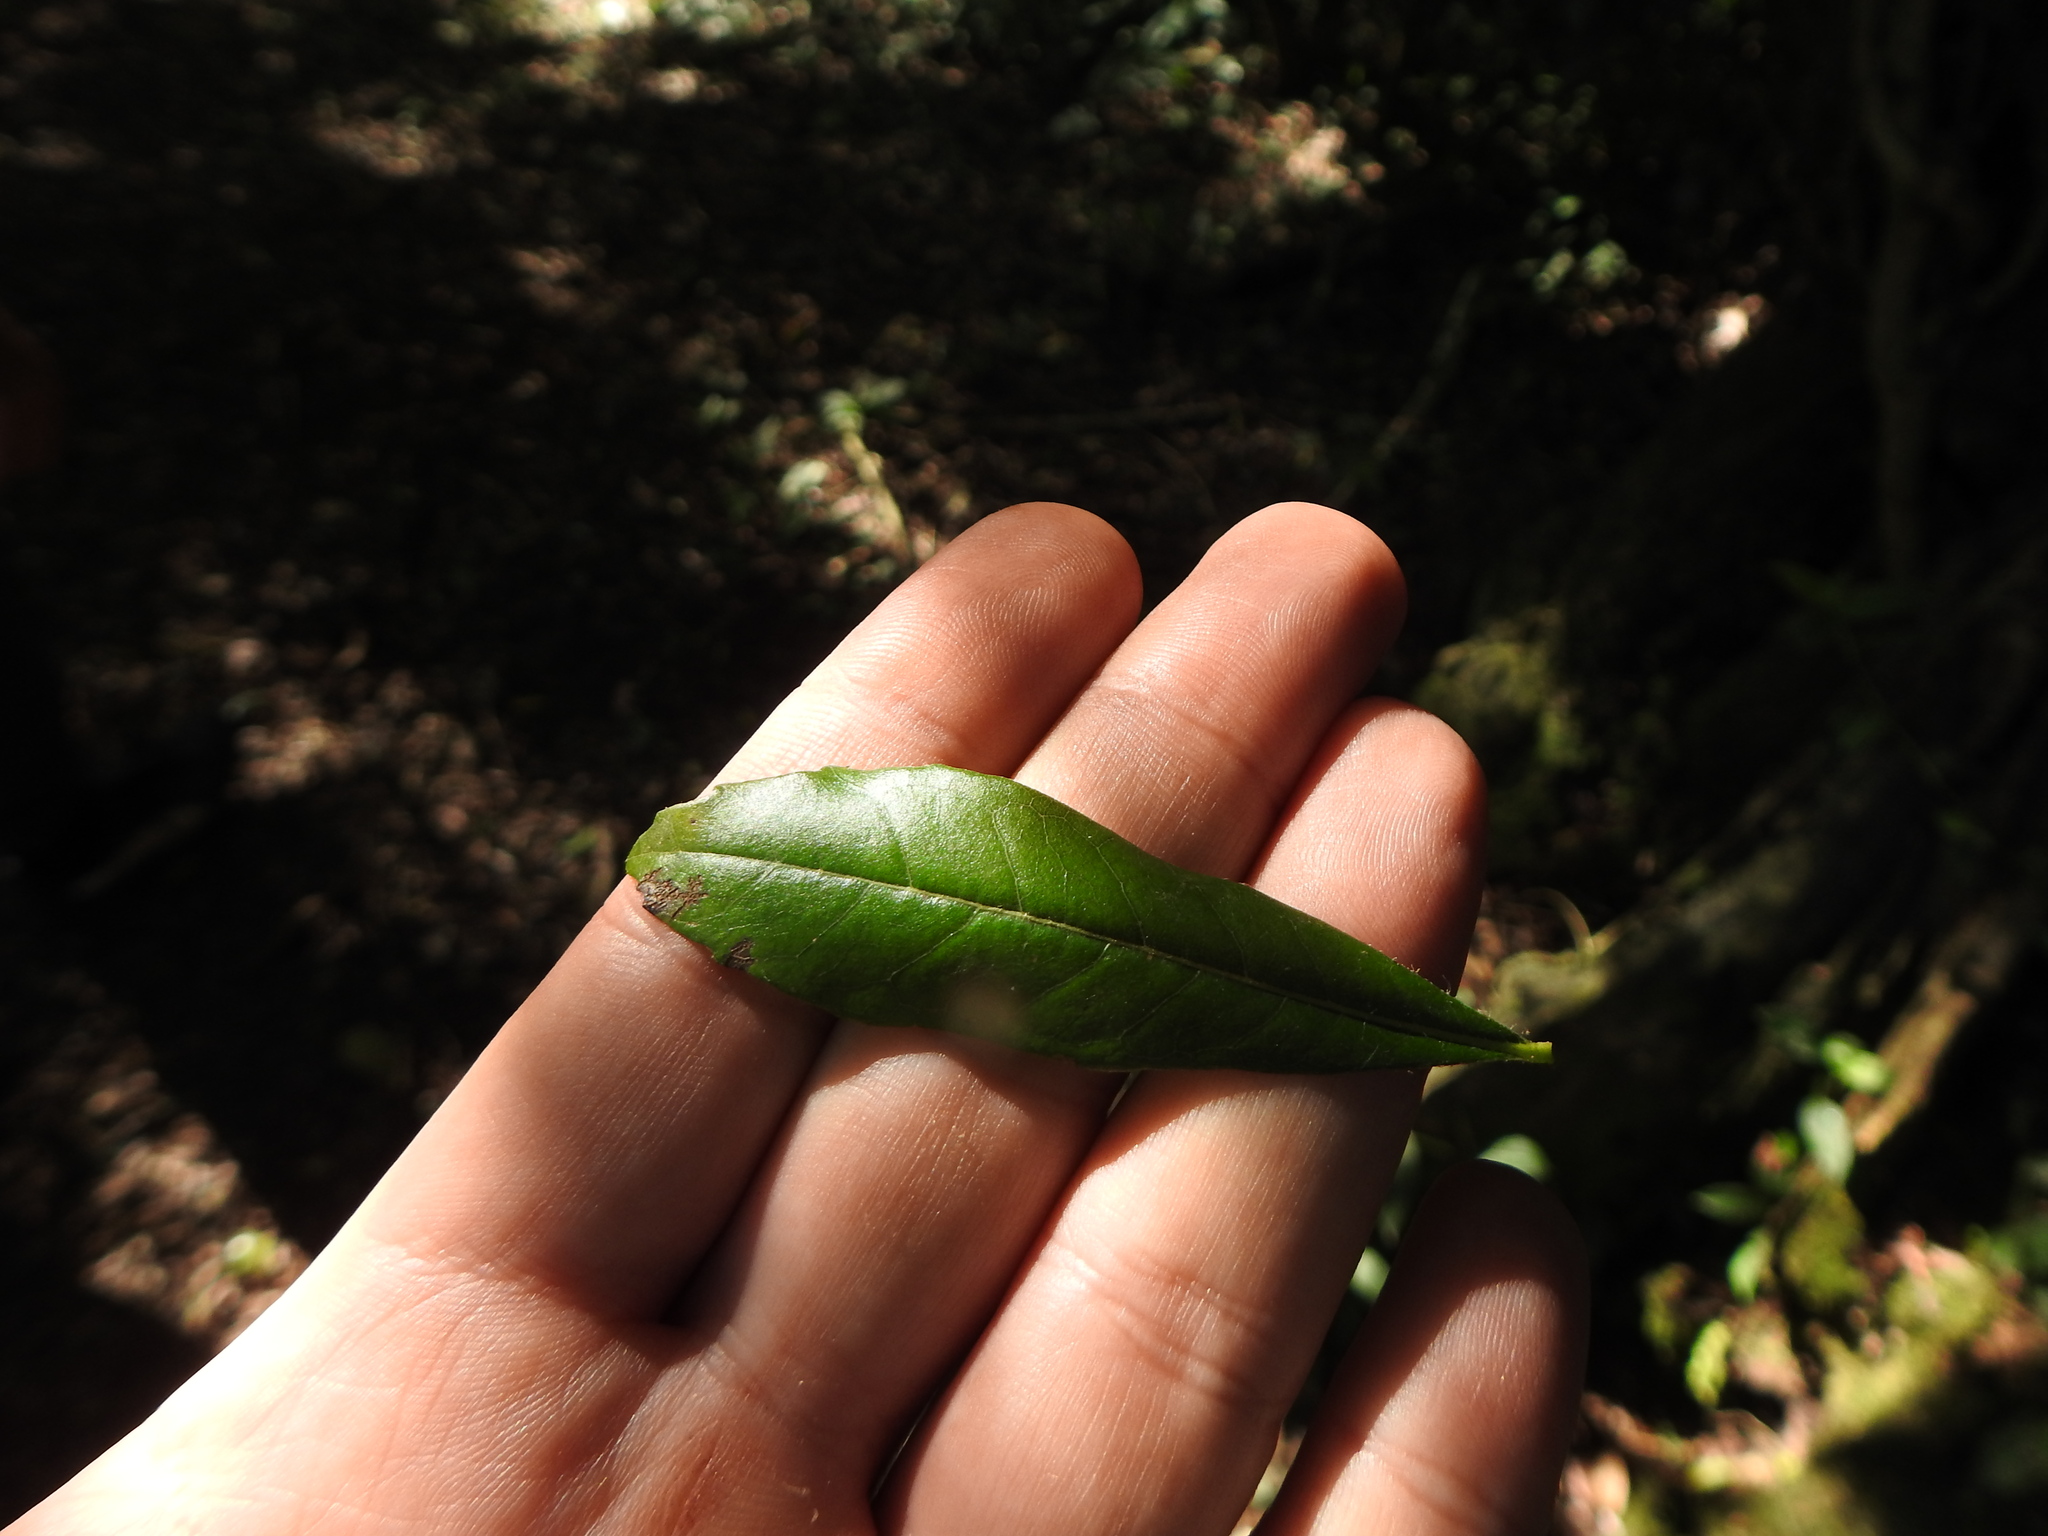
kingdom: Plantae
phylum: Tracheophyta
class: Magnoliopsida
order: Boraginales
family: Cordiaceae
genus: Cordia
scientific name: Cordia americana
